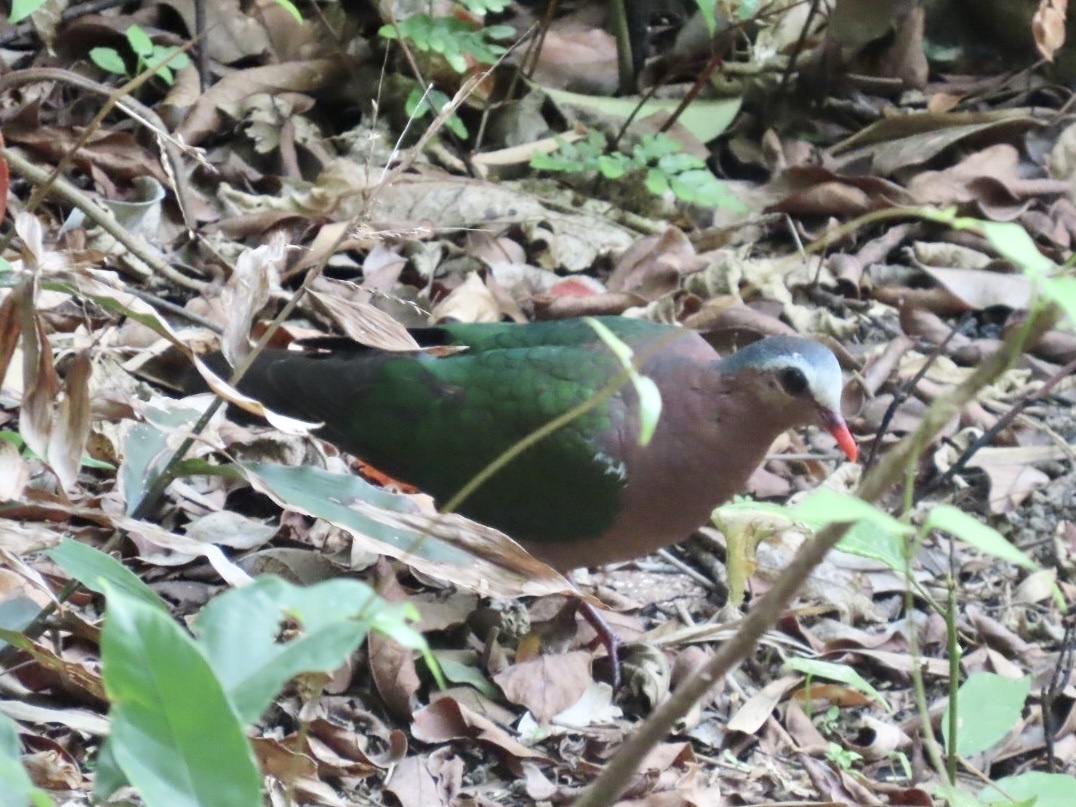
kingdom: Animalia
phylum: Chordata
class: Aves
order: Columbiformes
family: Columbidae
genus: Chalcophaps
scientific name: Chalcophaps indica
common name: Common emerald dove
